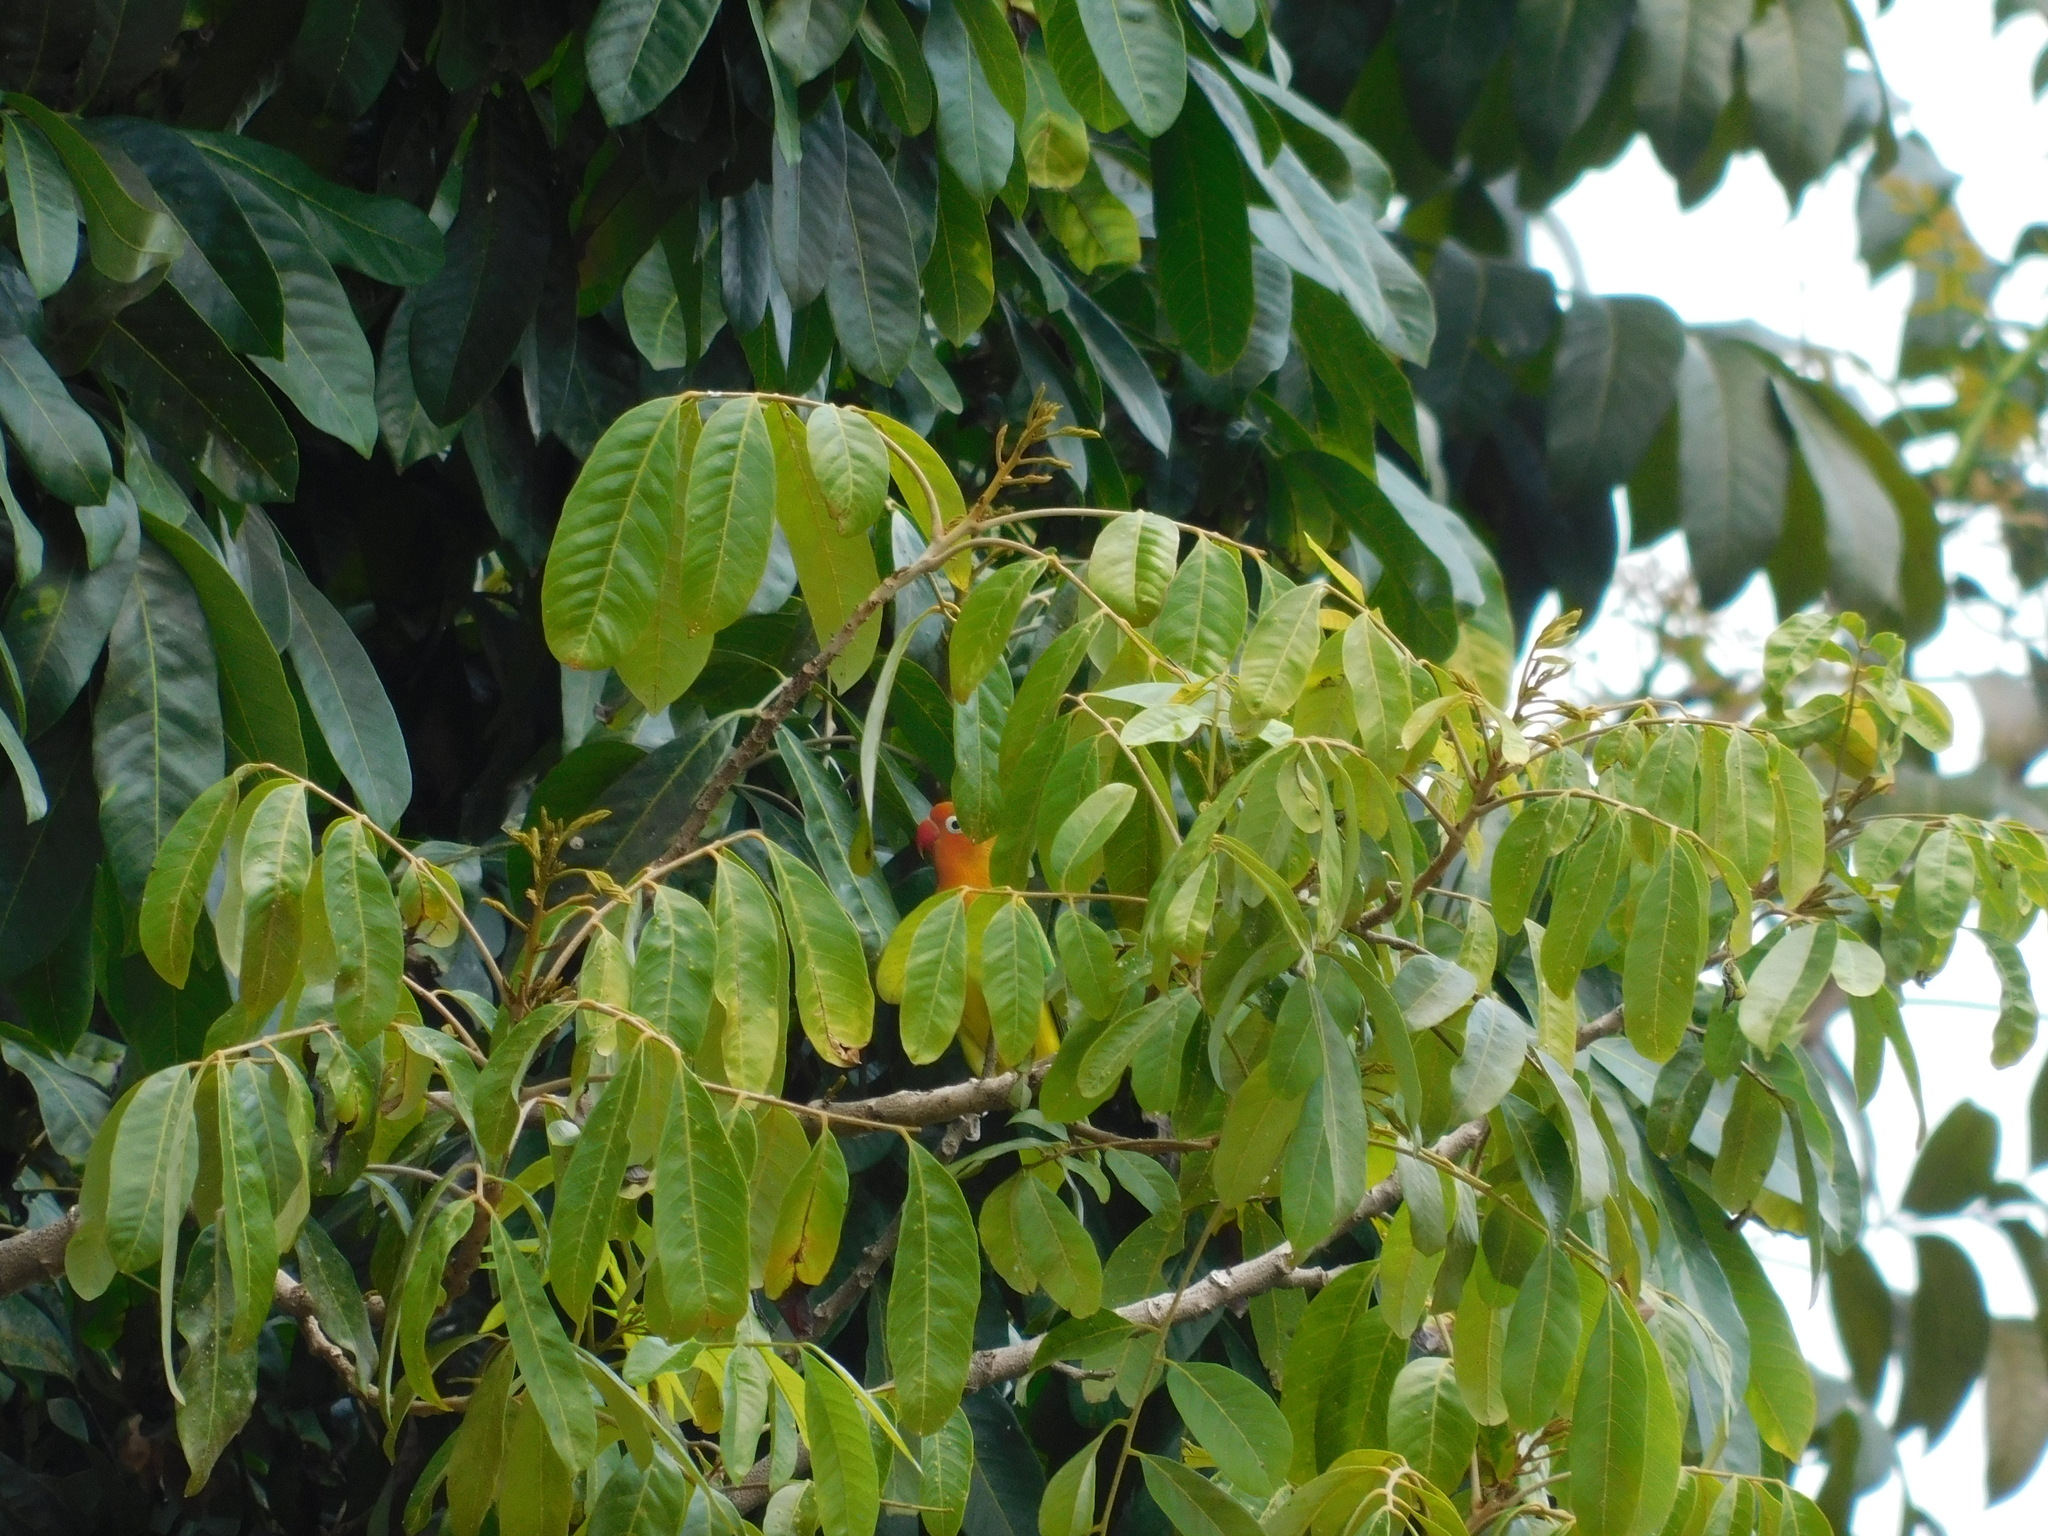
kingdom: Animalia
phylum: Chordata
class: Aves
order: Psittaciformes
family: Psittacidae
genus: Agapornis
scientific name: Agapornis fischeri
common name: Fischer's lovebird
